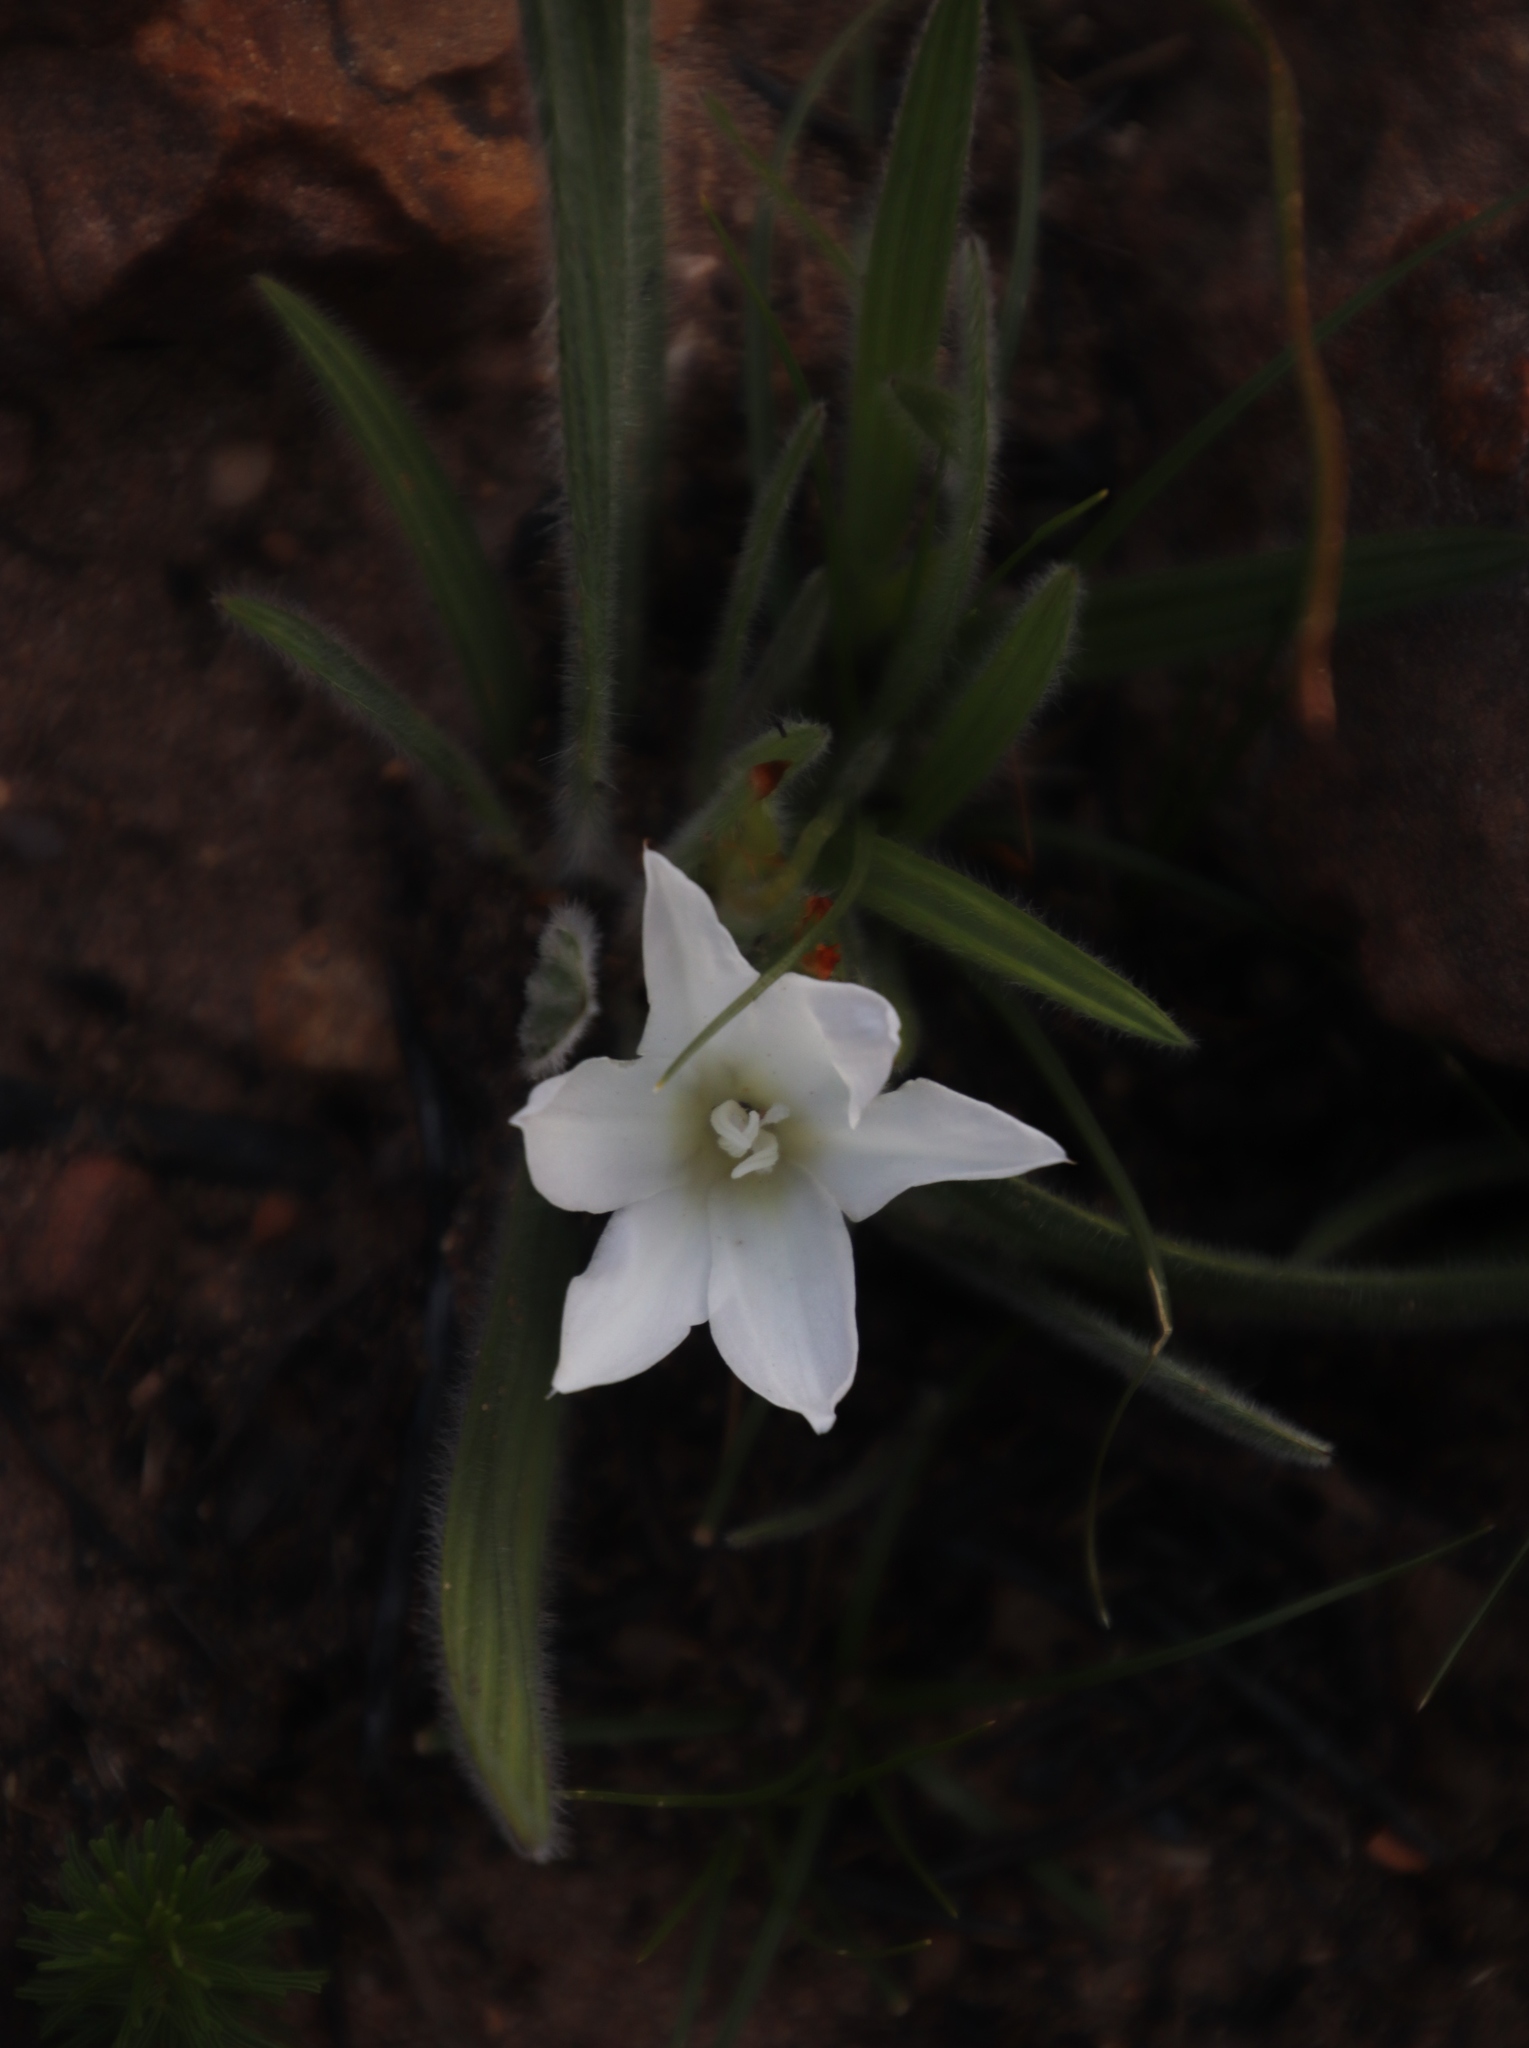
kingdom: Plantae
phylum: Tracheophyta
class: Liliopsida
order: Asparagales
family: Iridaceae
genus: Babiana
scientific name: Babiana villosula
